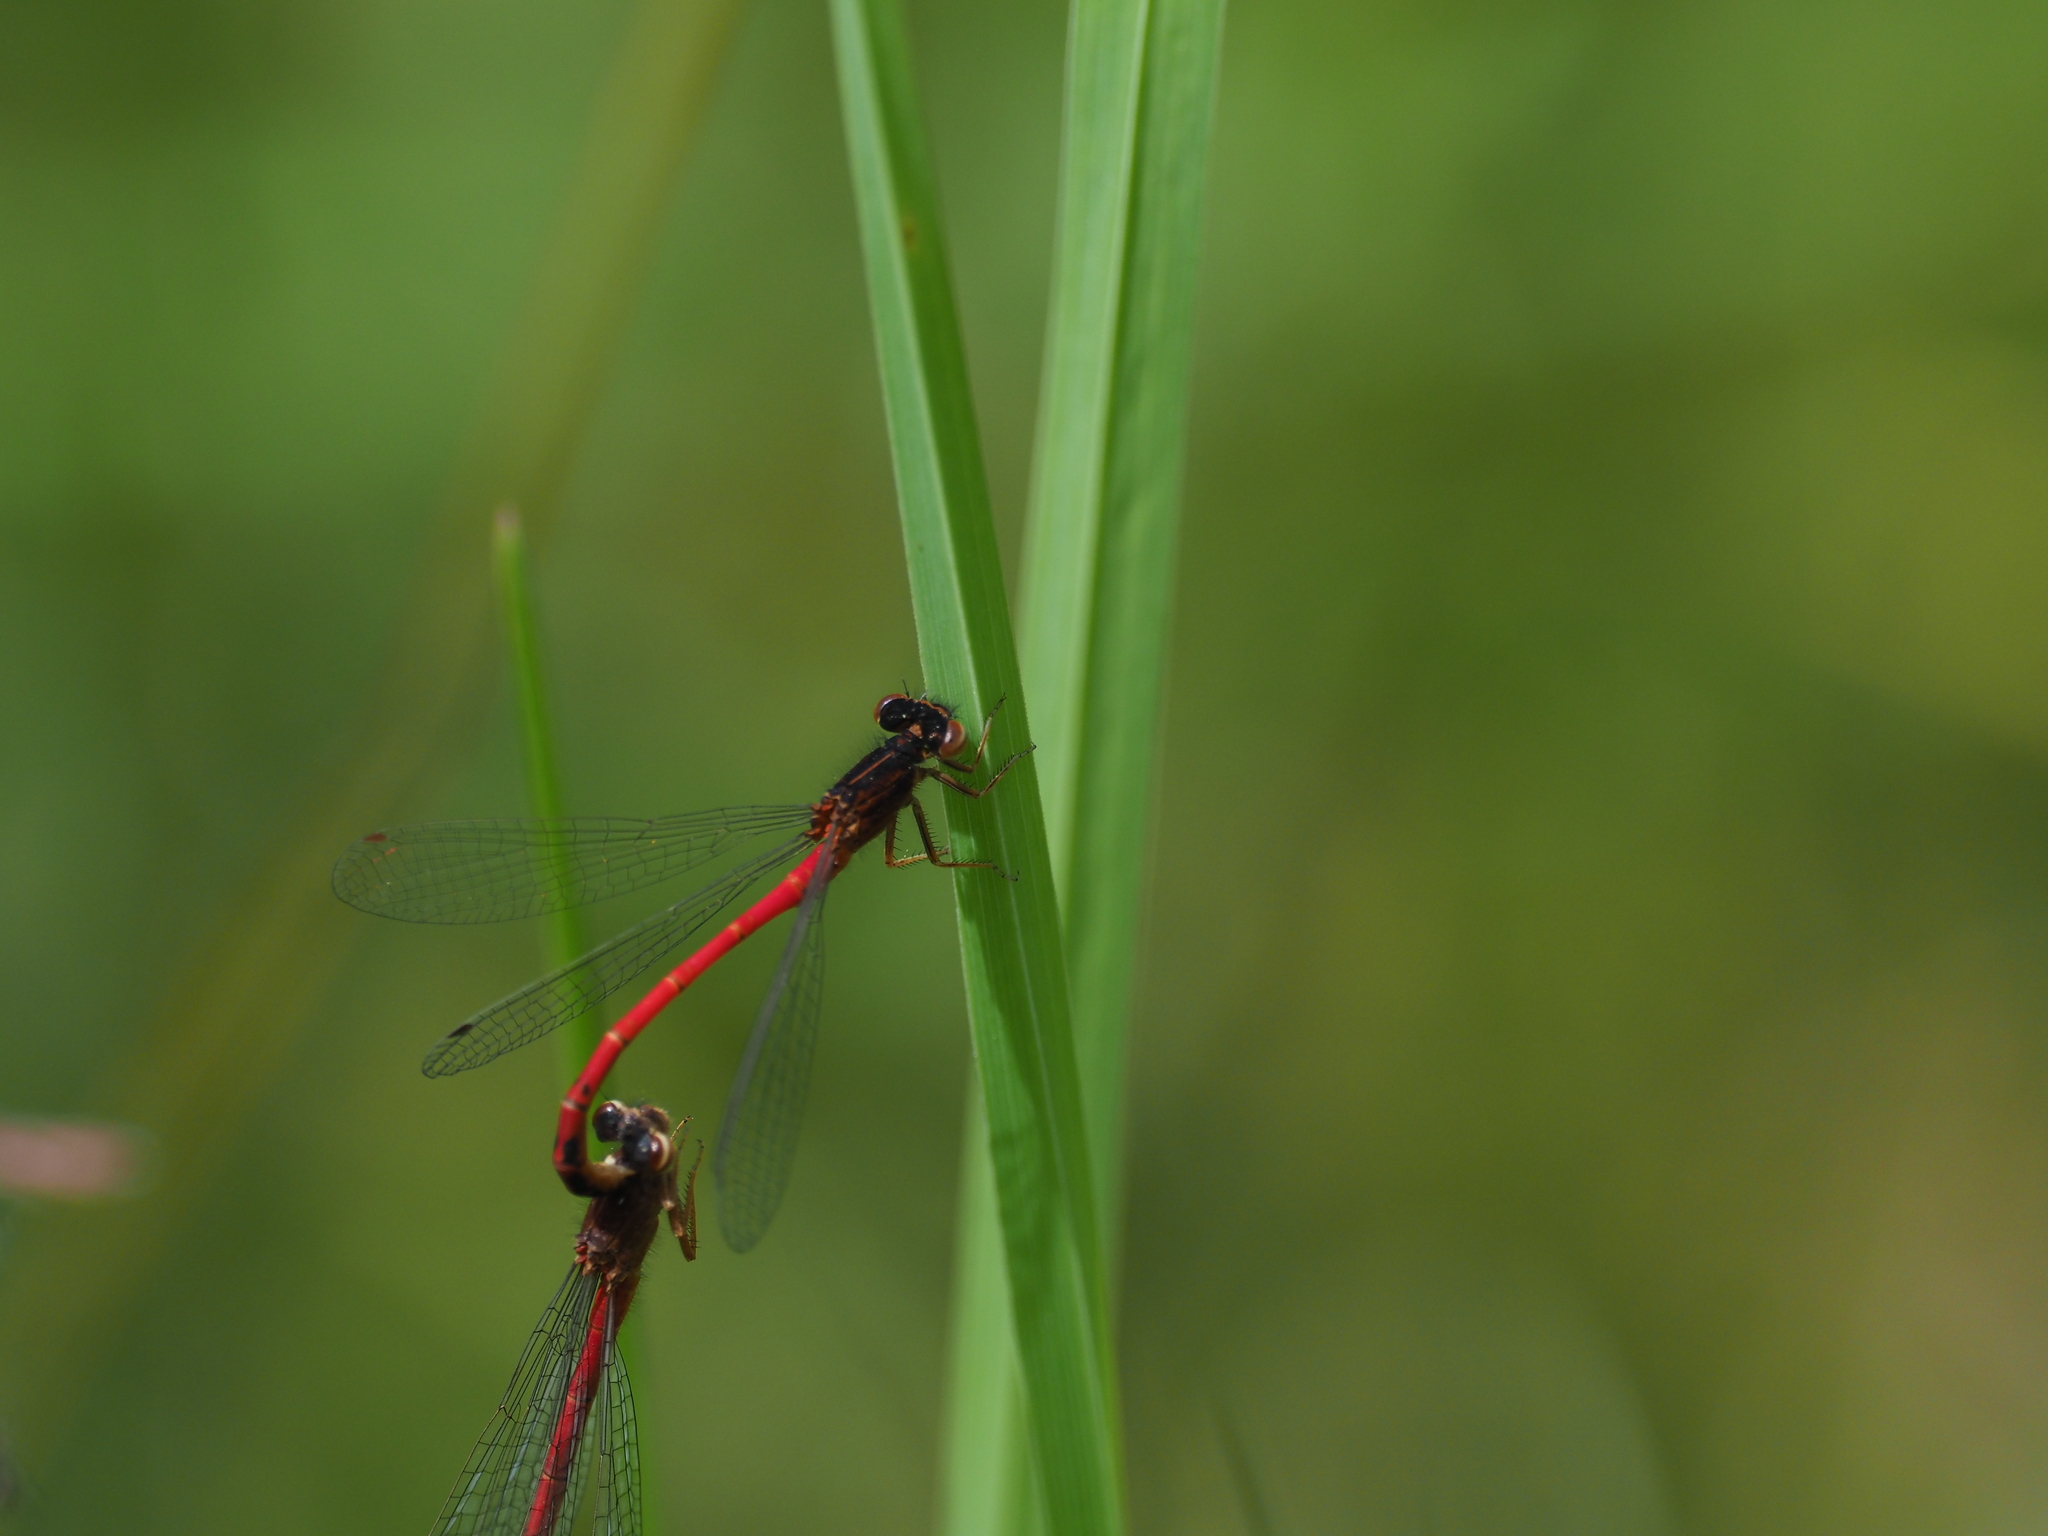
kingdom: Animalia
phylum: Arthropoda
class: Insecta
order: Odonata
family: Coenagrionidae
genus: Amphiagrion
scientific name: Amphiagrion abbreviatum
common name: Western red damsel
